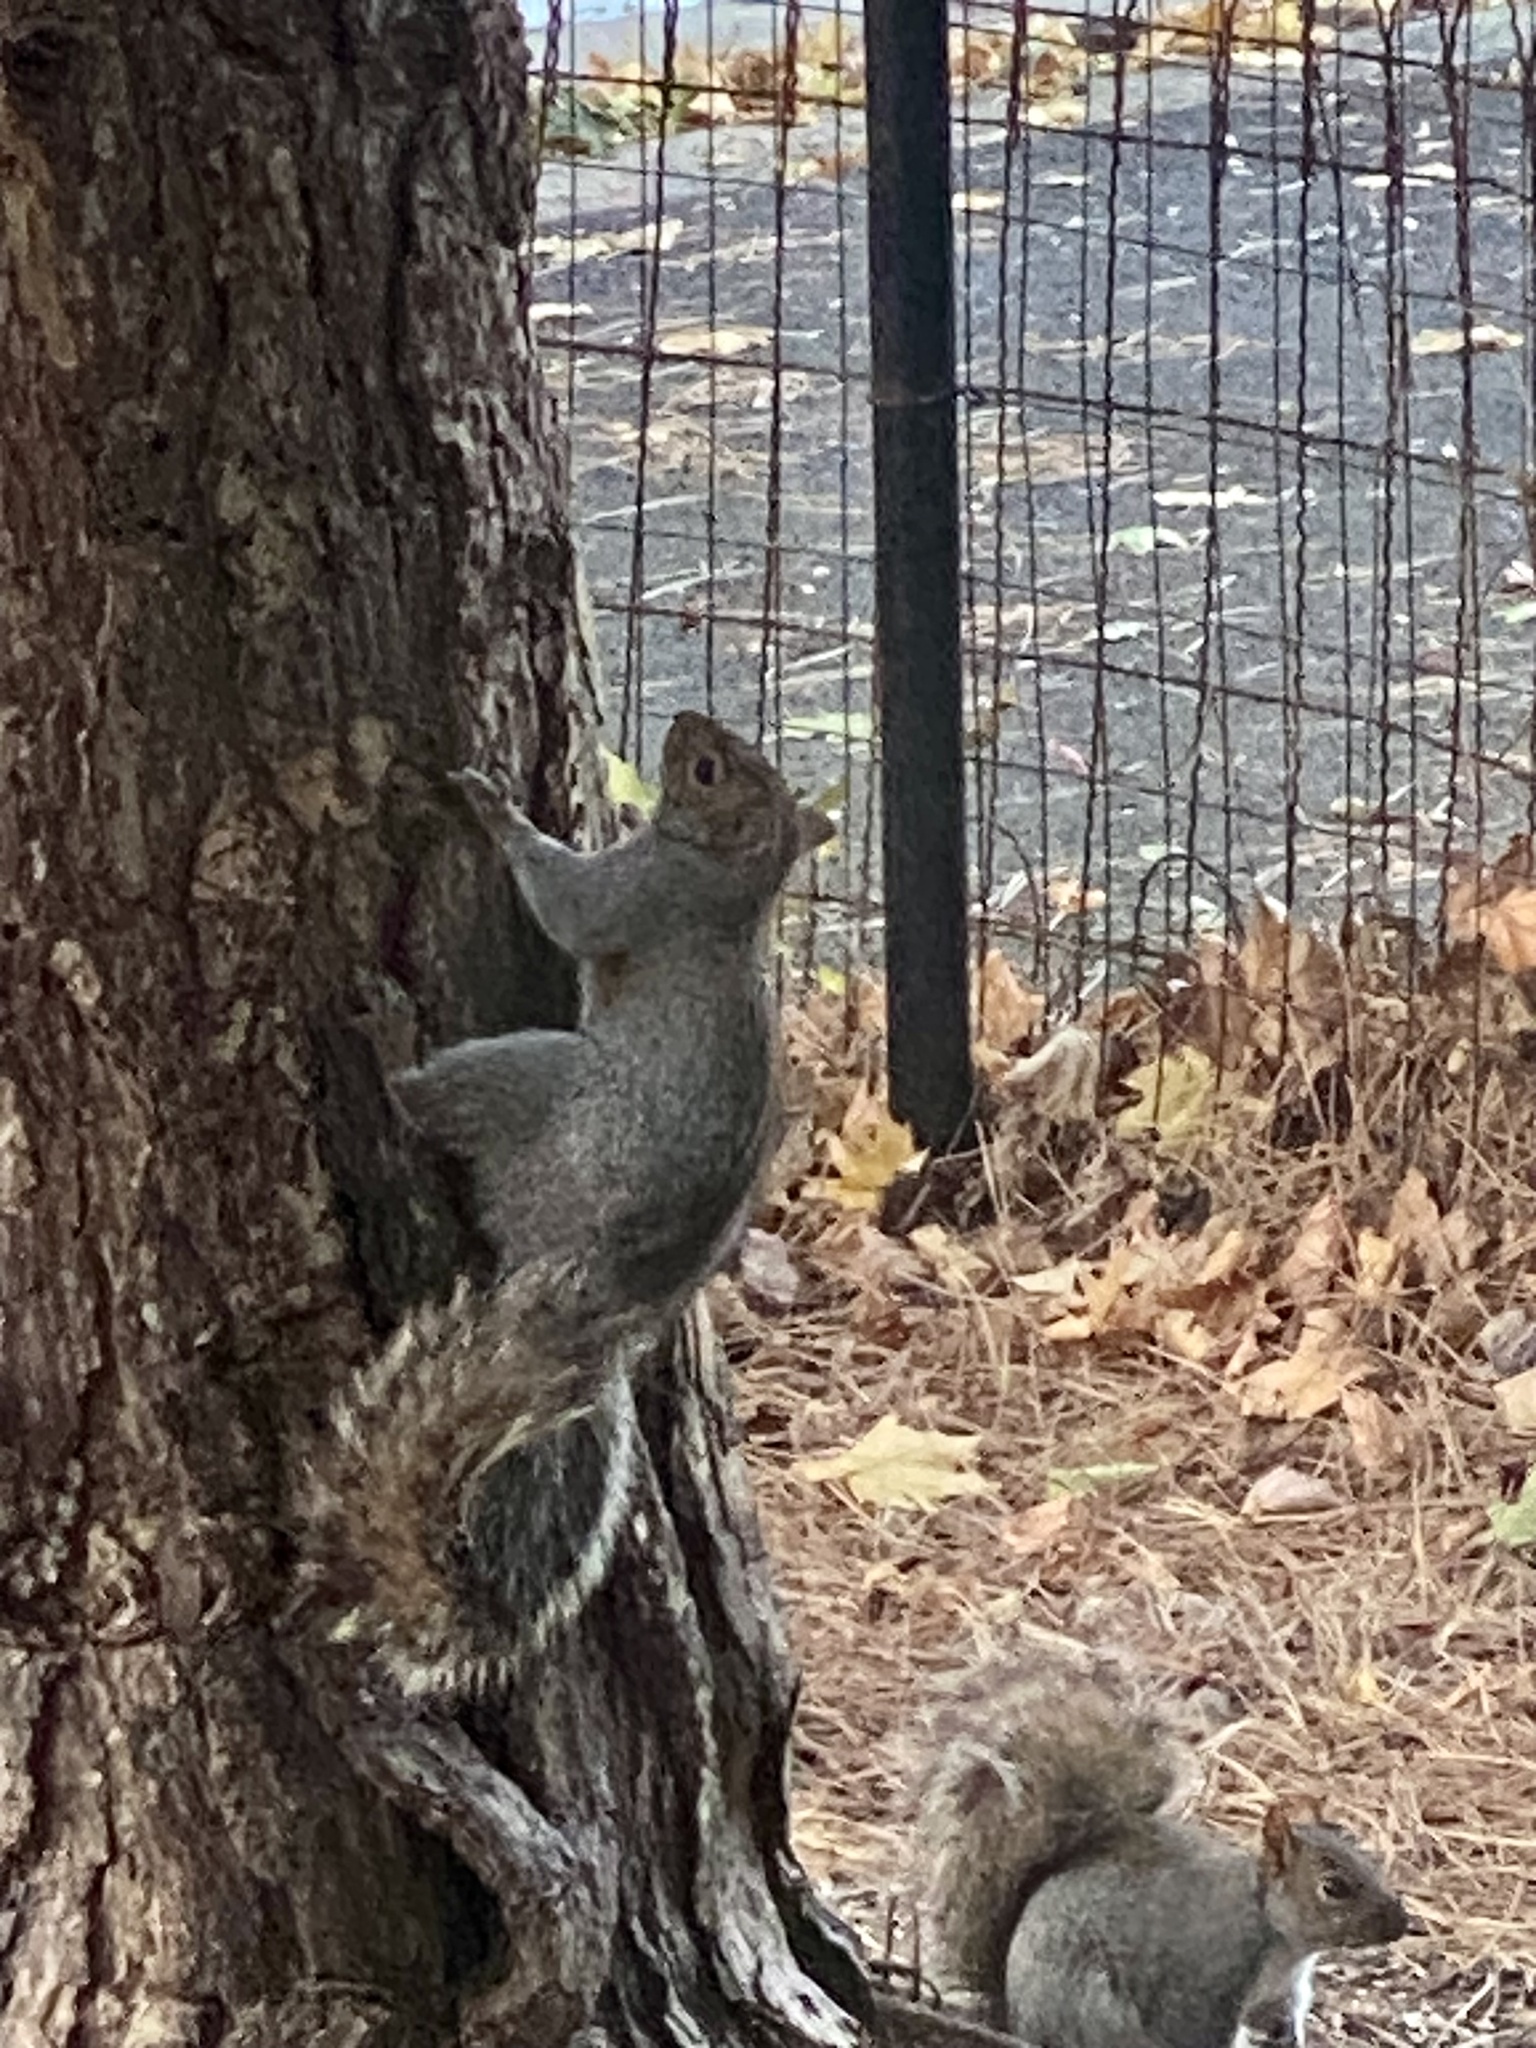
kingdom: Animalia
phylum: Chordata
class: Mammalia
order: Rodentia
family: Sciuridae
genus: Sciurus
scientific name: Sciurus carolinensis
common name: Eastern gray squirrel
